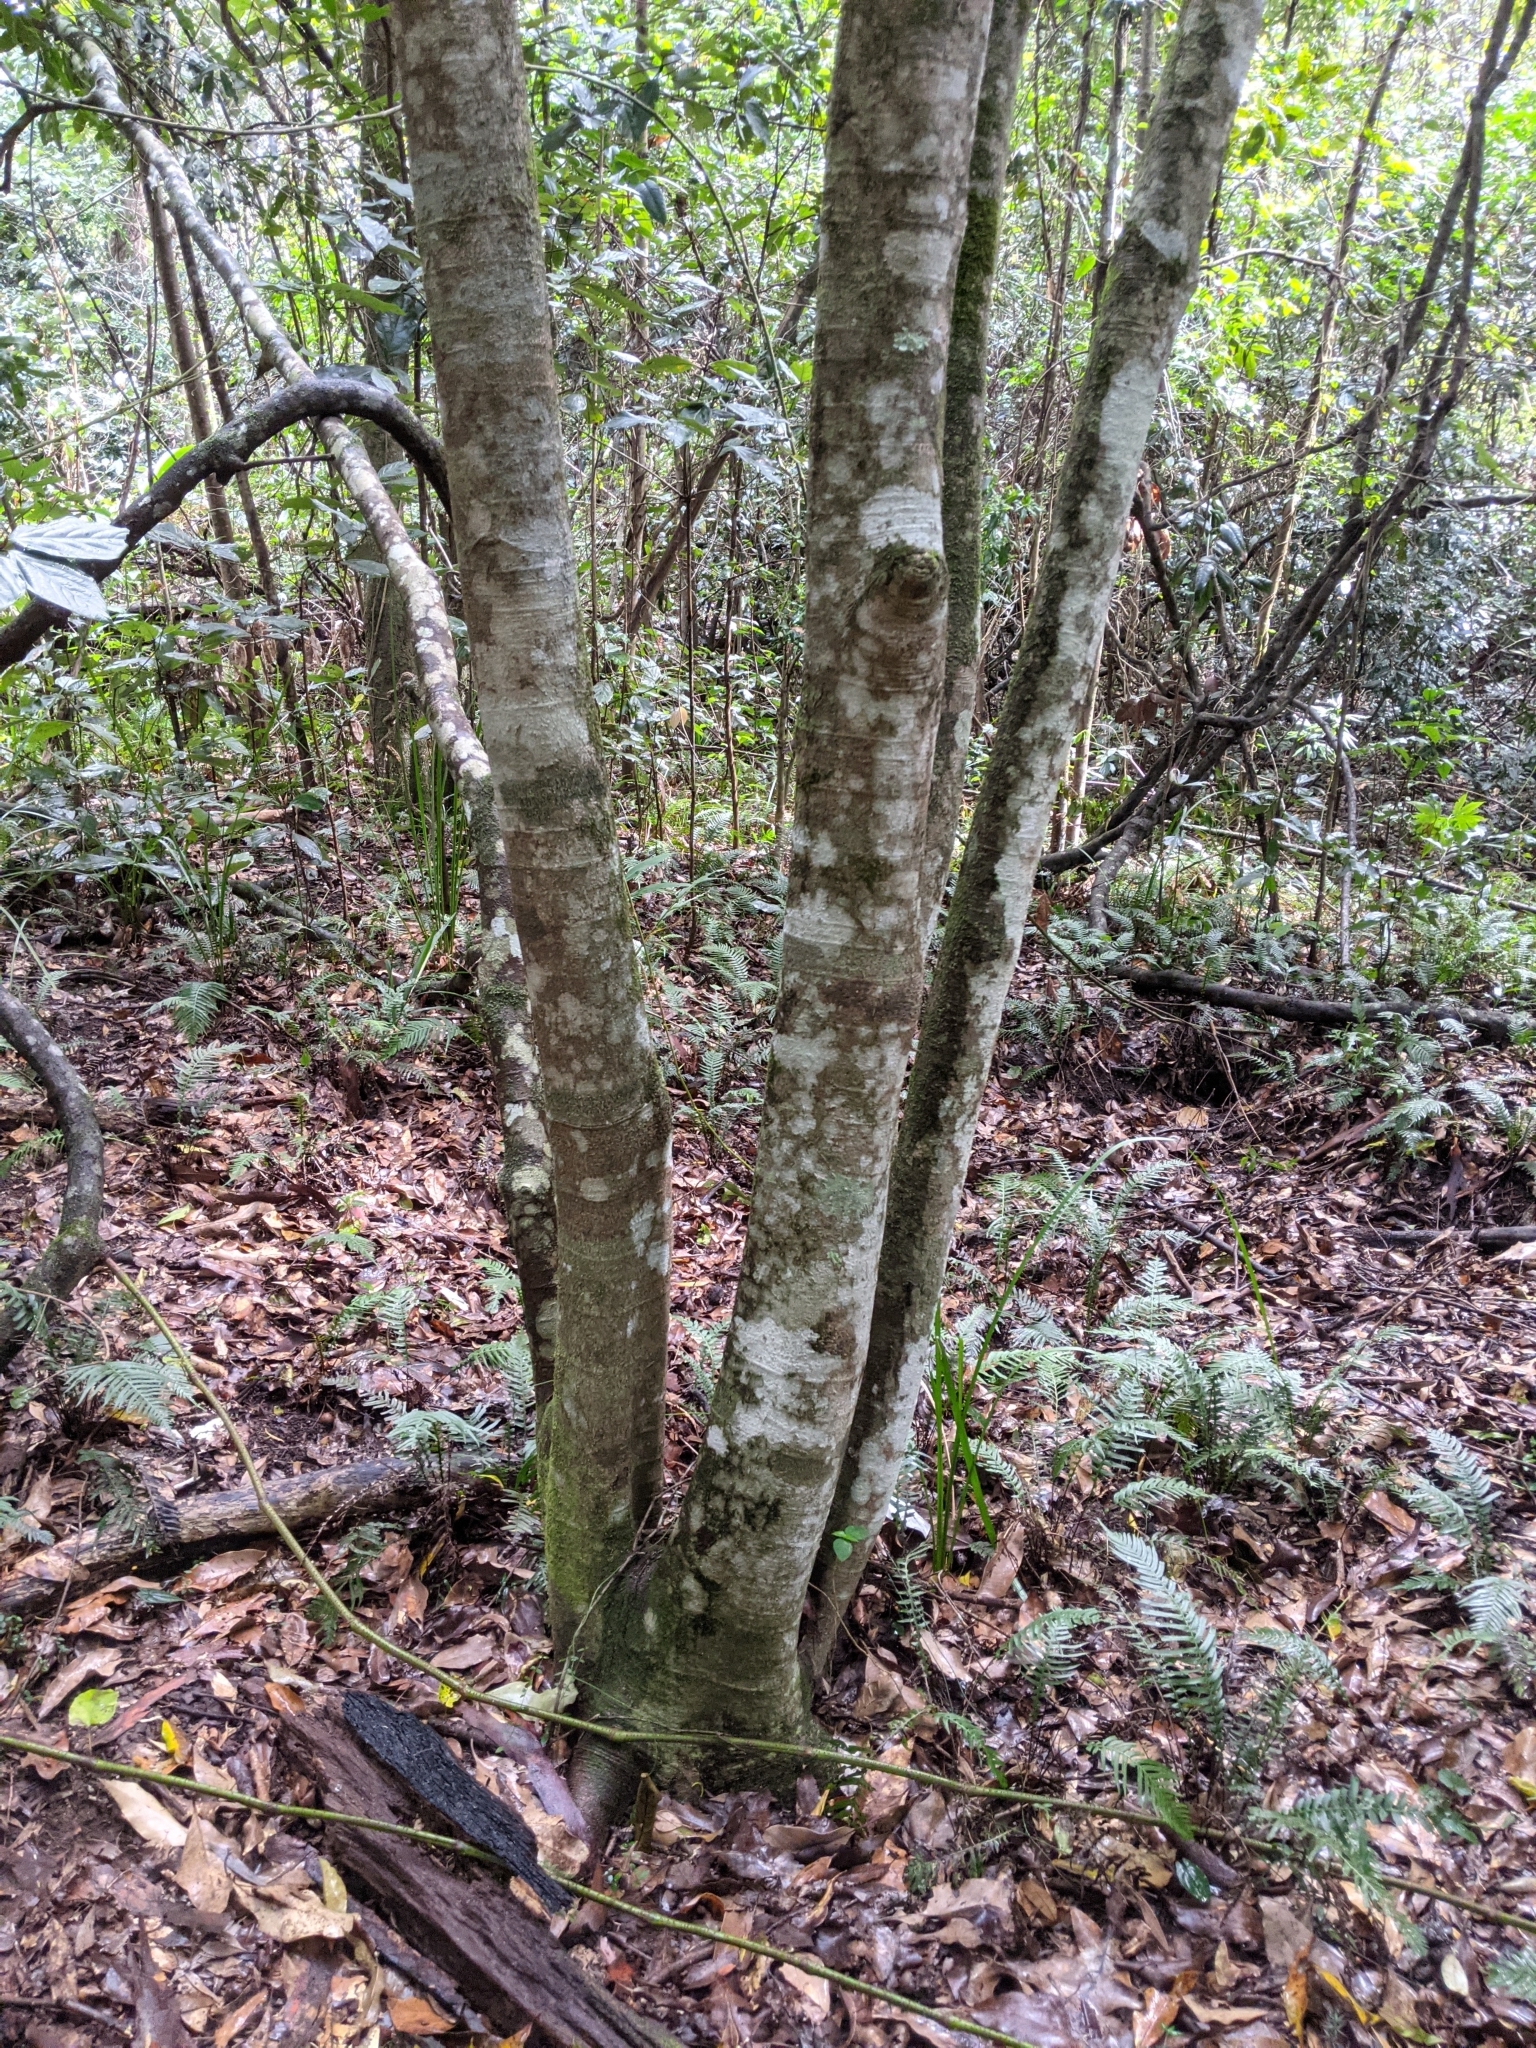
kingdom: Plantae
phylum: Tracheophyta
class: Magnoliopsida
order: Proteales
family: Proteaceae
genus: Macadamia
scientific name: Macadamia integrifolia
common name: Macadamia
